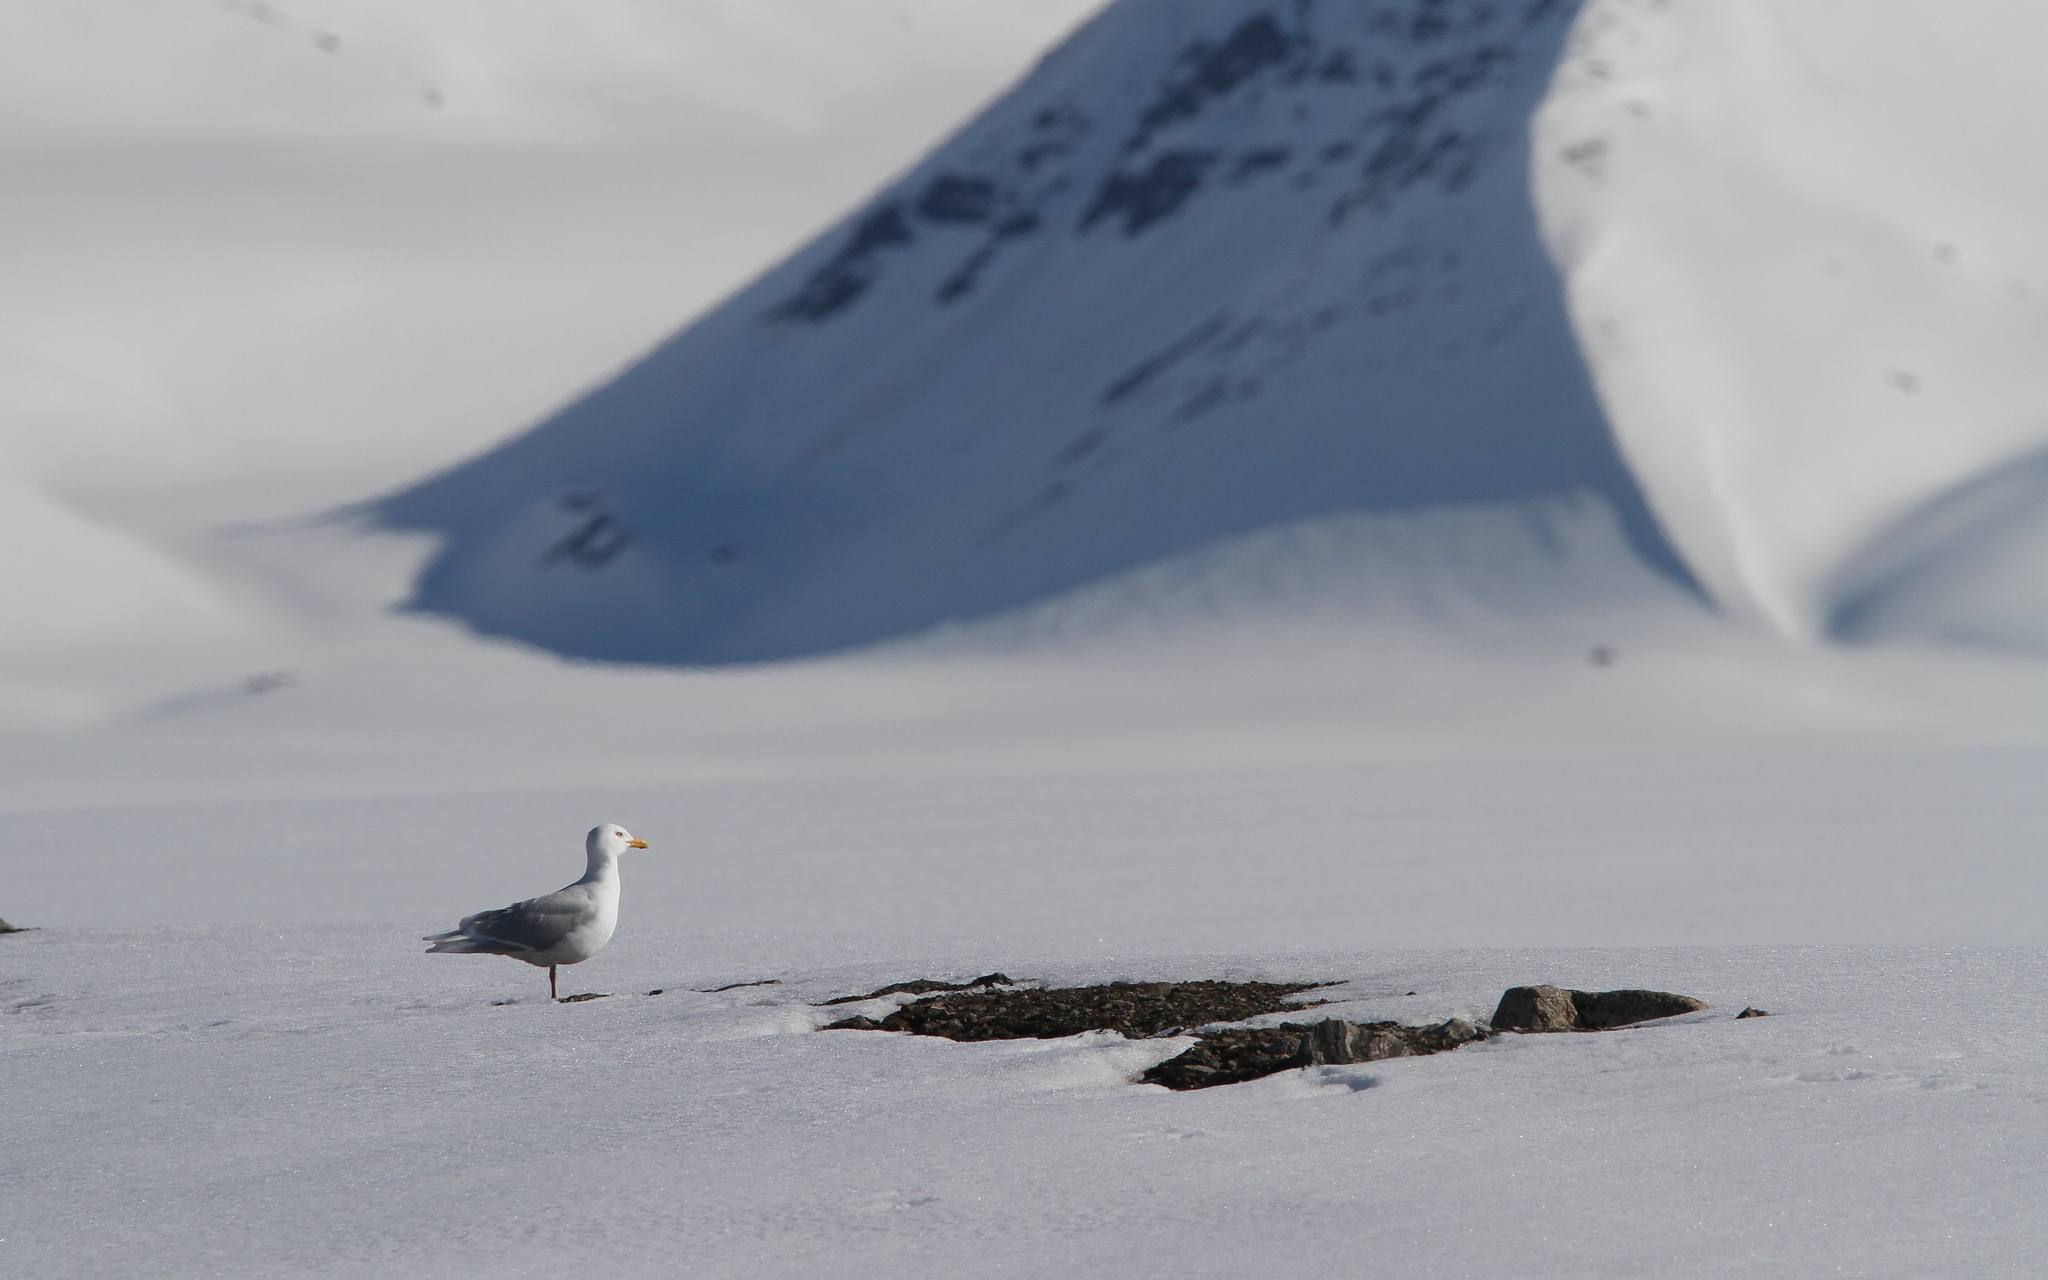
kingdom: Animalia
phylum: Chordata
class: Aves
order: Charadriiformes
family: Laridae
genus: Larus
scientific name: Larus hyperboreus
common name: Glaucous gull
